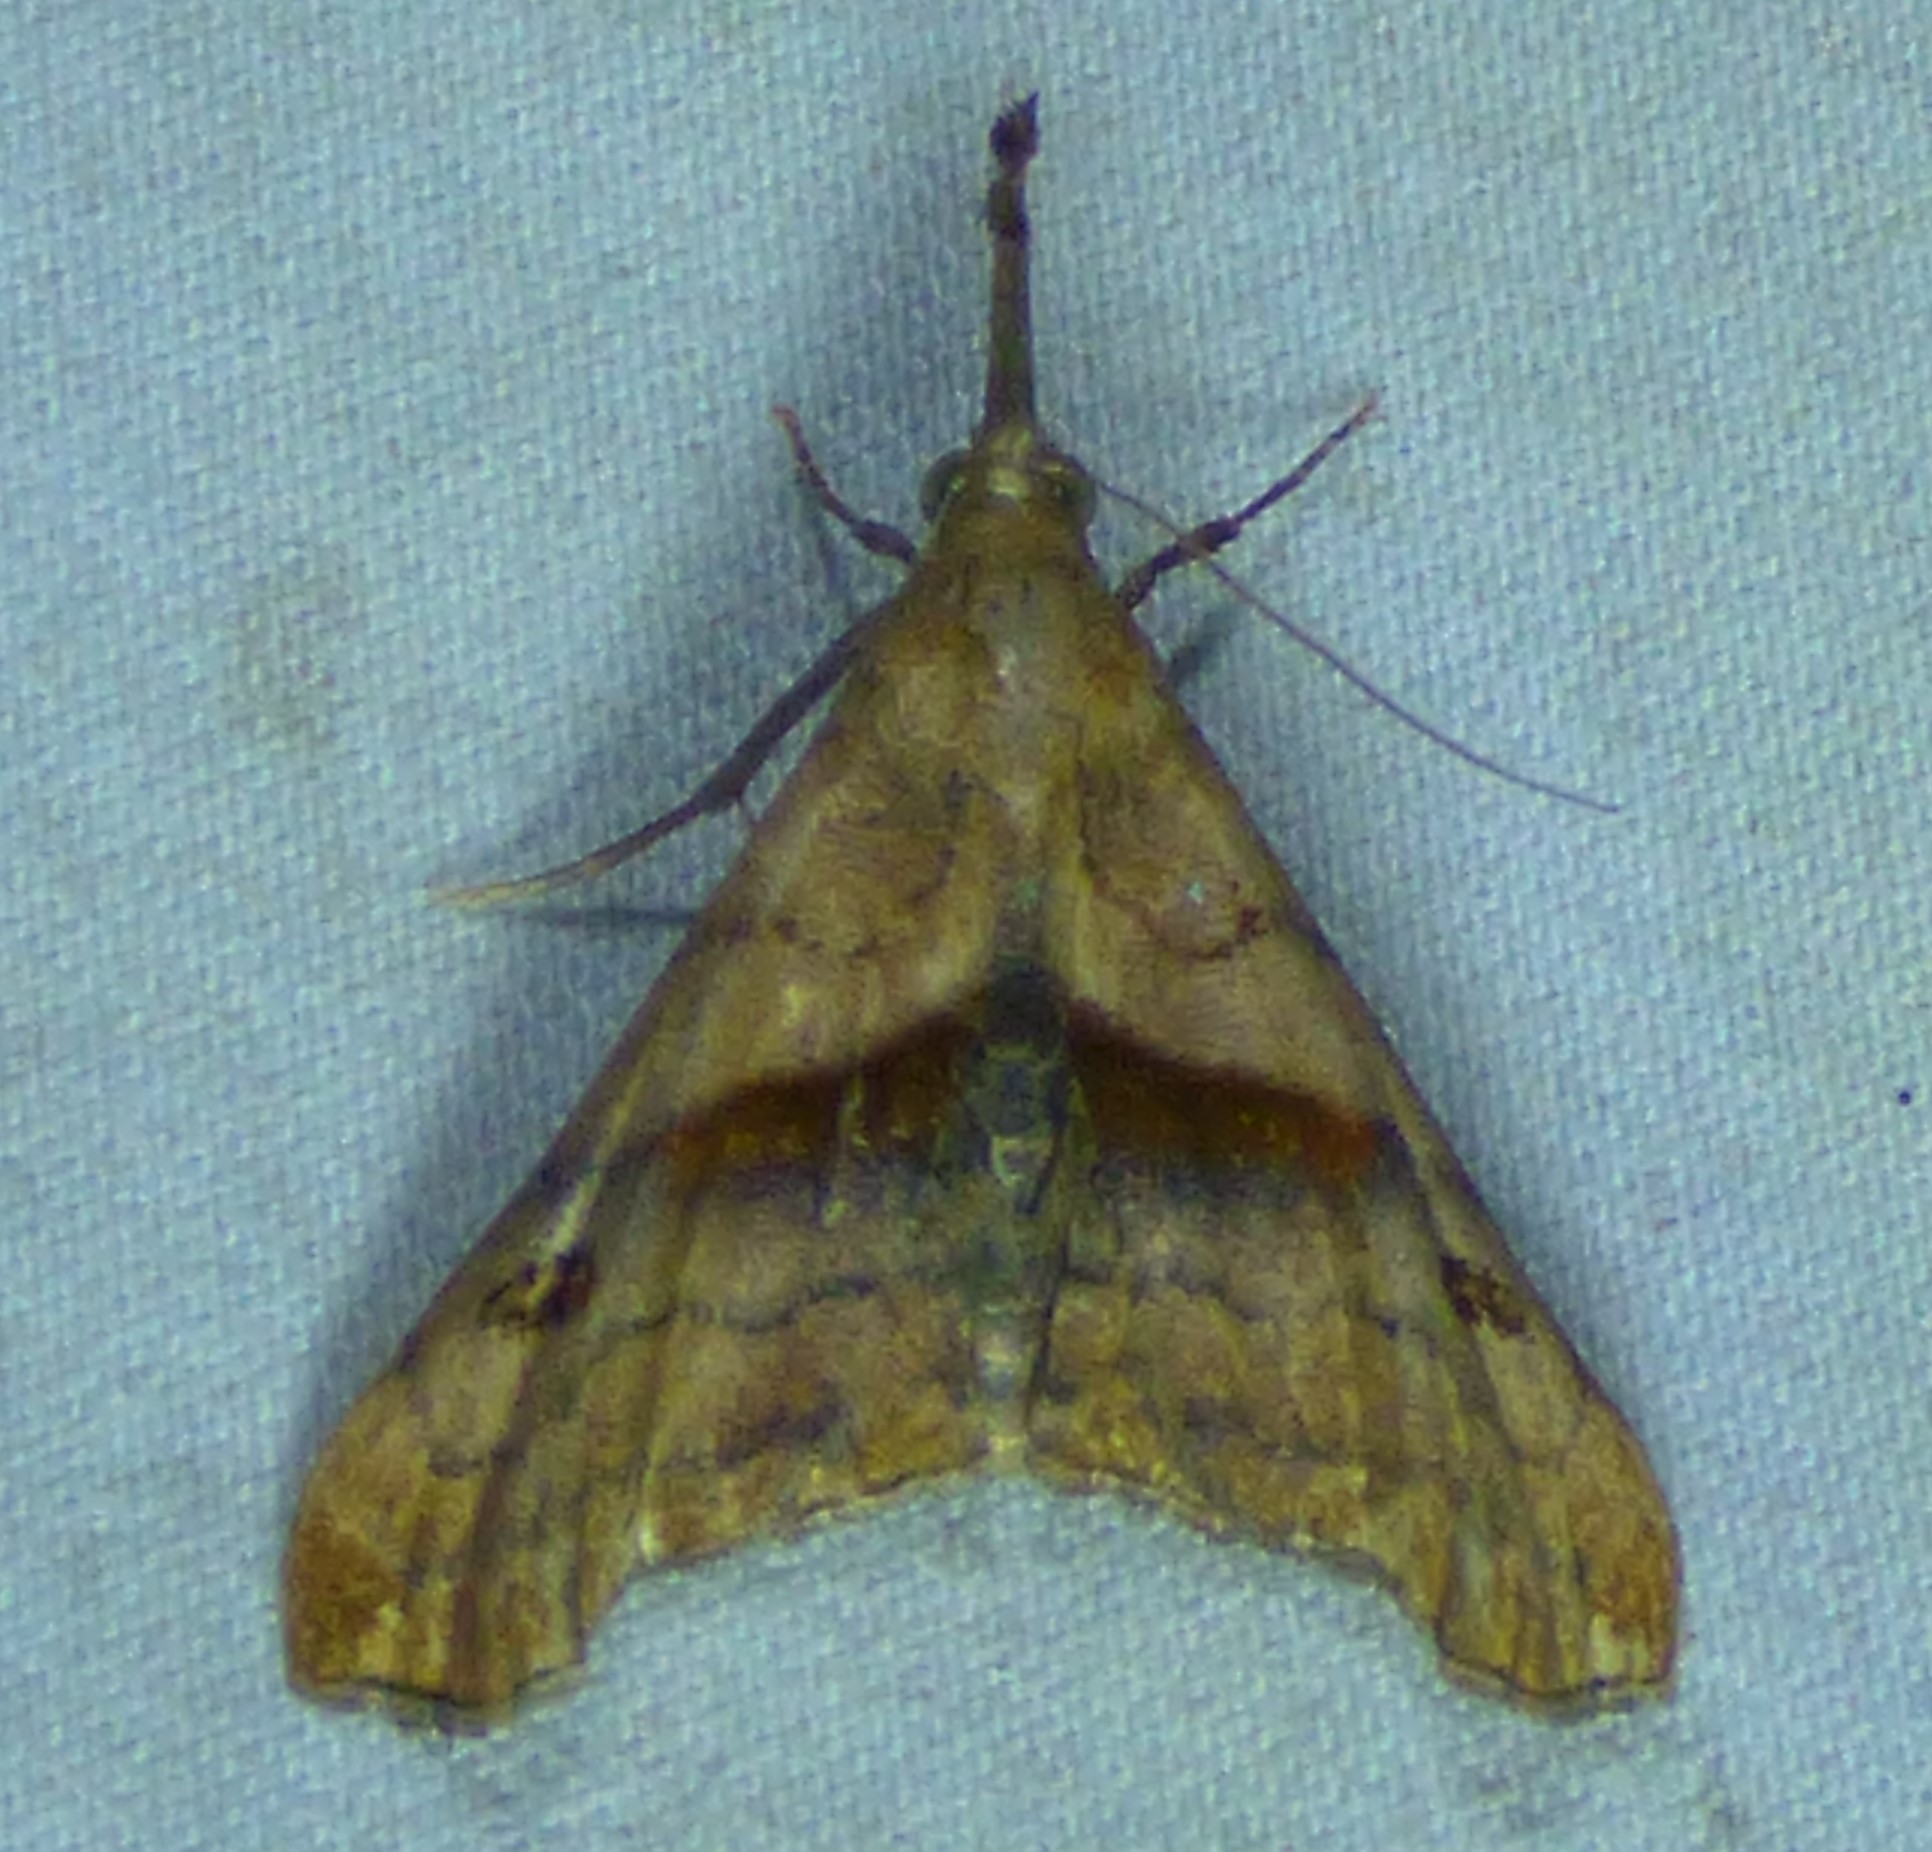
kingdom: Animalia
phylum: Arthropoda
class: Insecta
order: Lepidoptera
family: Erebidae
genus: Palthis
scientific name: Palthis angulalis
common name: Dark-spotted palthis moth
